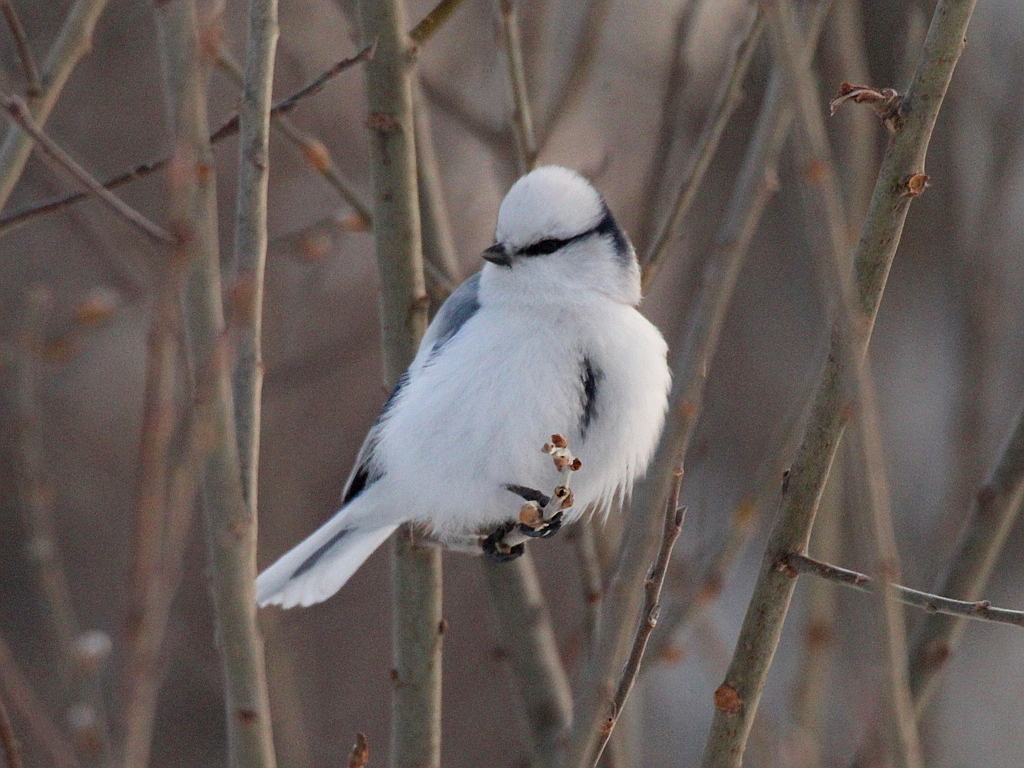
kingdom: Animalia
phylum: Chordata
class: Aves
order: Passeriformes
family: Paridae
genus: Cyanistes
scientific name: Cyanistes cyanus
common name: Azure tit
